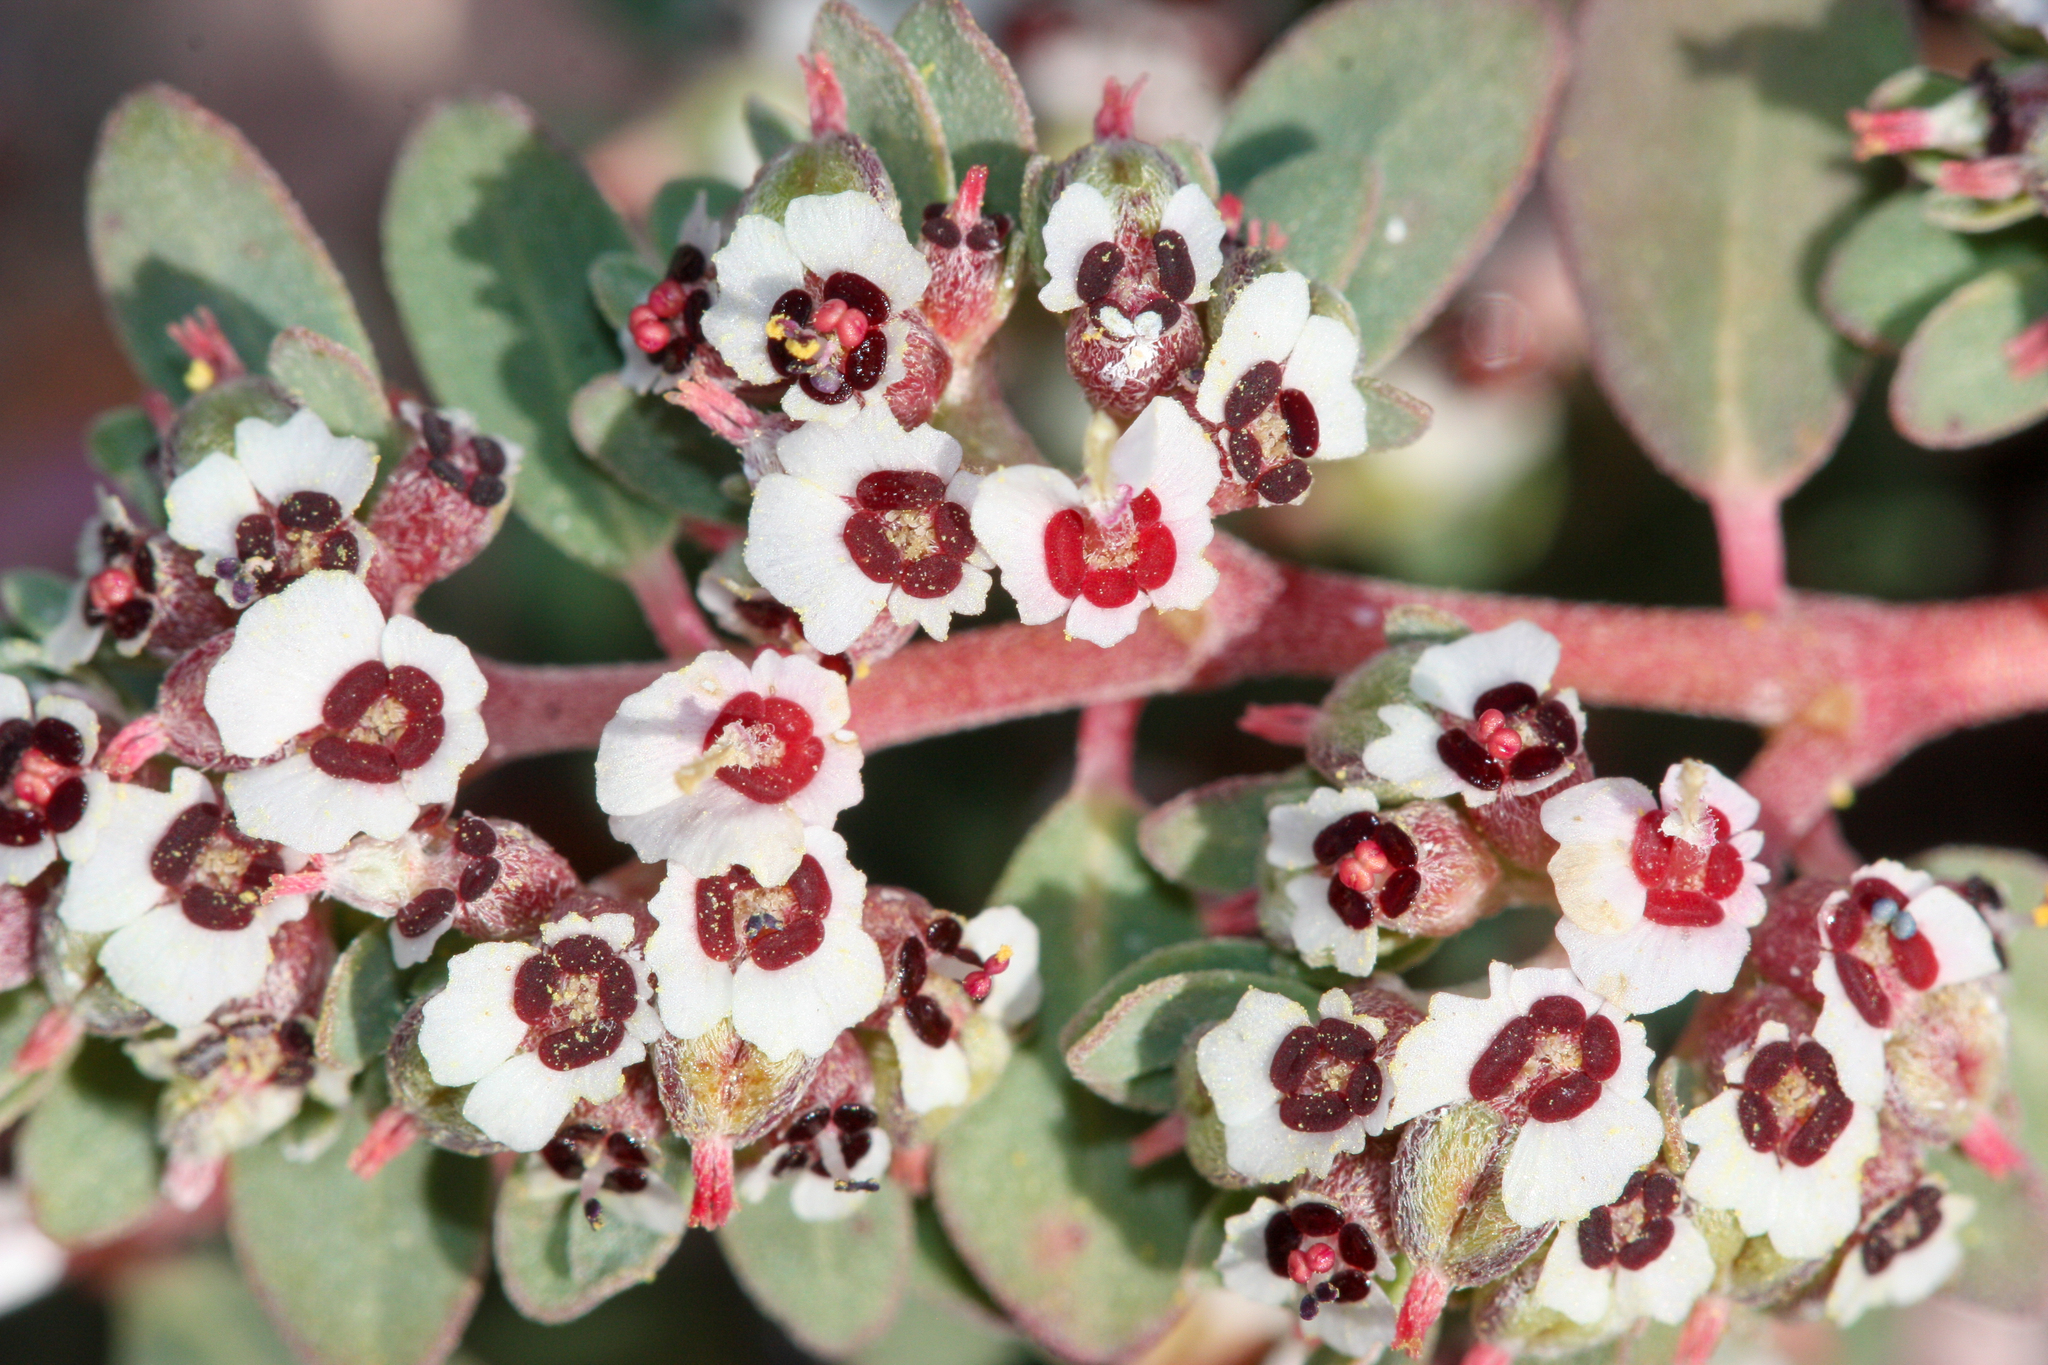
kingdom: Plantae
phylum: Tracheophyta
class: Magnoliopsida
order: Malpighiales
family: Euphorbiaceae
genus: Euphorbia
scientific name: Euphorbia pediculifera
